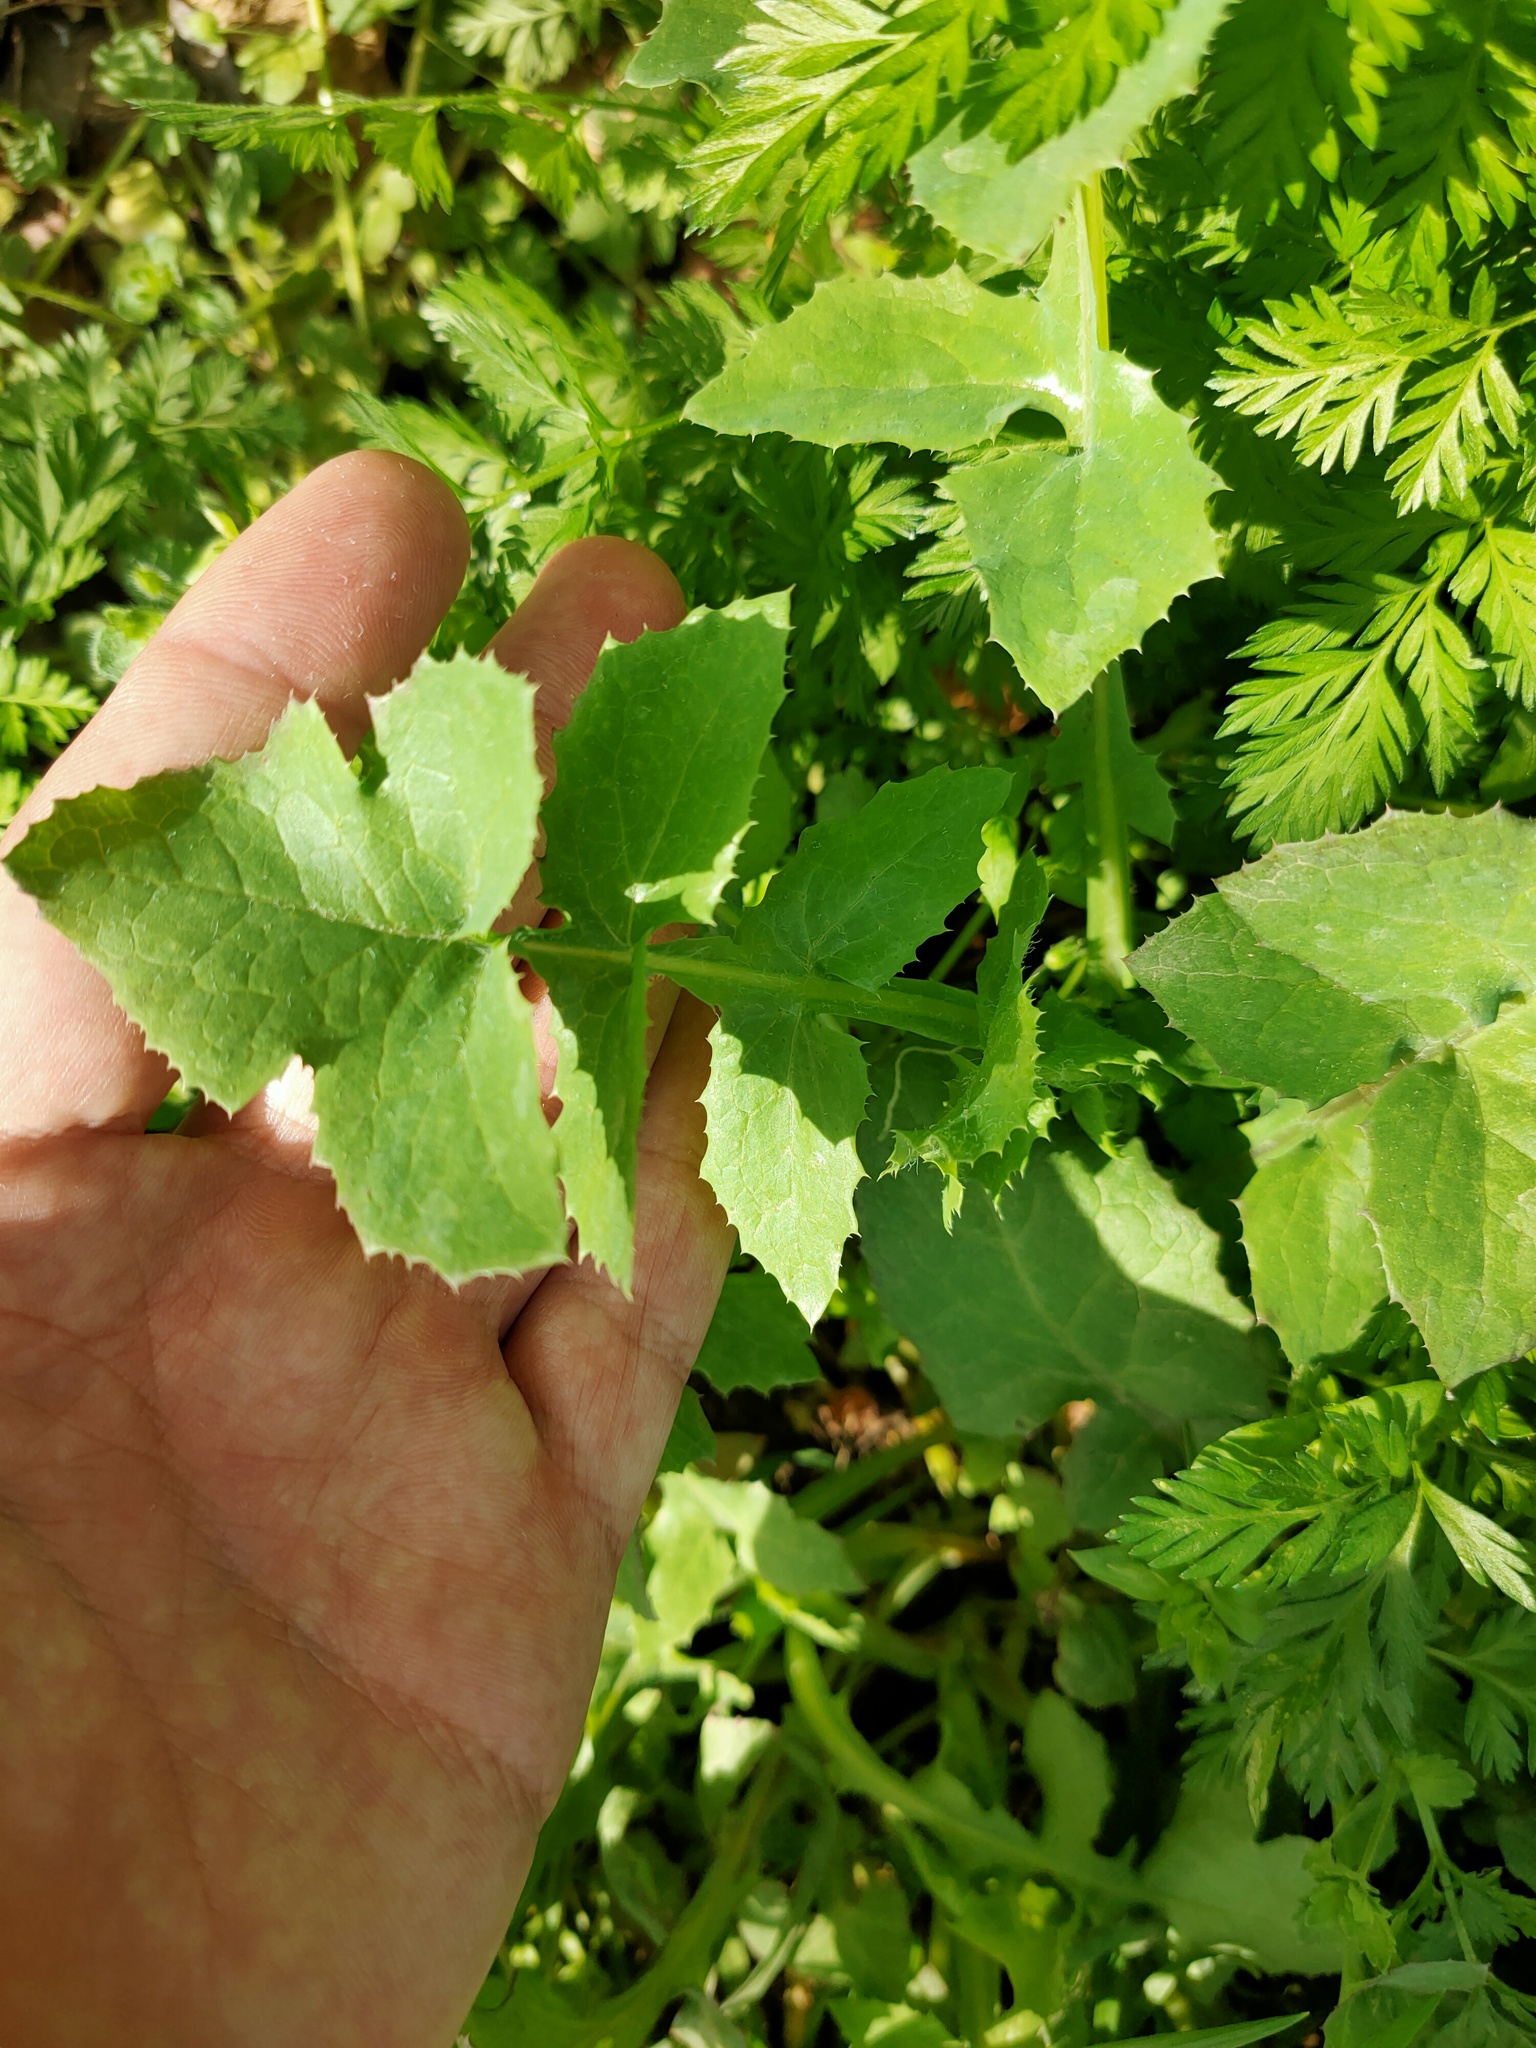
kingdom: Plantae
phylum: Tracheophyta
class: Magnoliopsida
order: Asterales
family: Asteraceae
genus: Sonchus
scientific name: Sonchus oleraceus
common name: Common sowthistle
